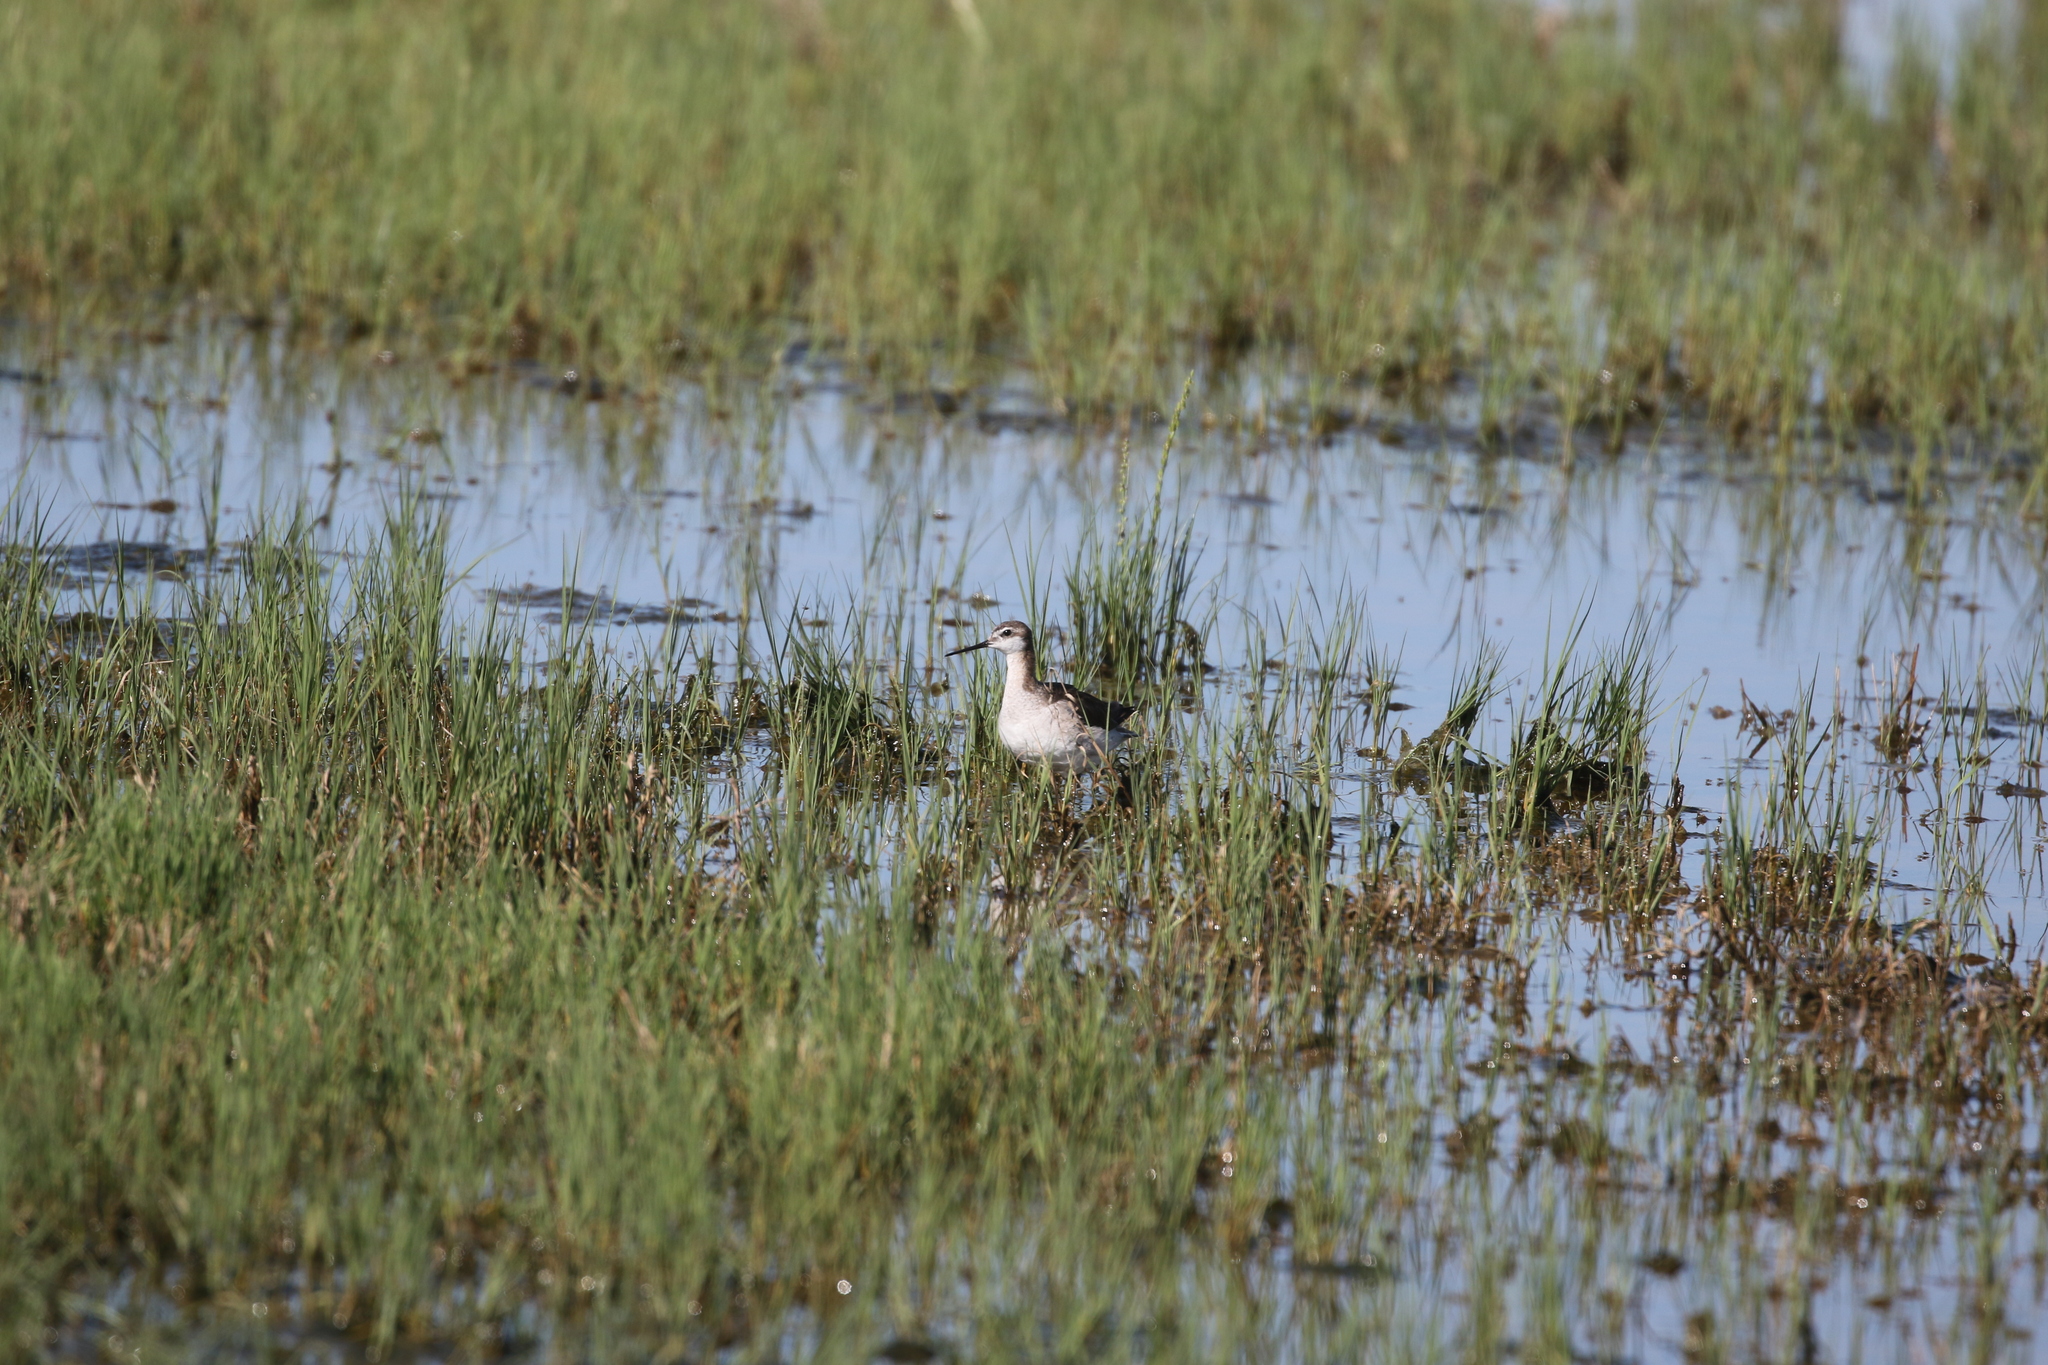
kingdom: Animalia
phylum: Chordata
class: Aves
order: Charadriiformes
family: Scolopacidae
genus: Phalaropus
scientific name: Phalaropus tricolor
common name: Wilson's phalarope
